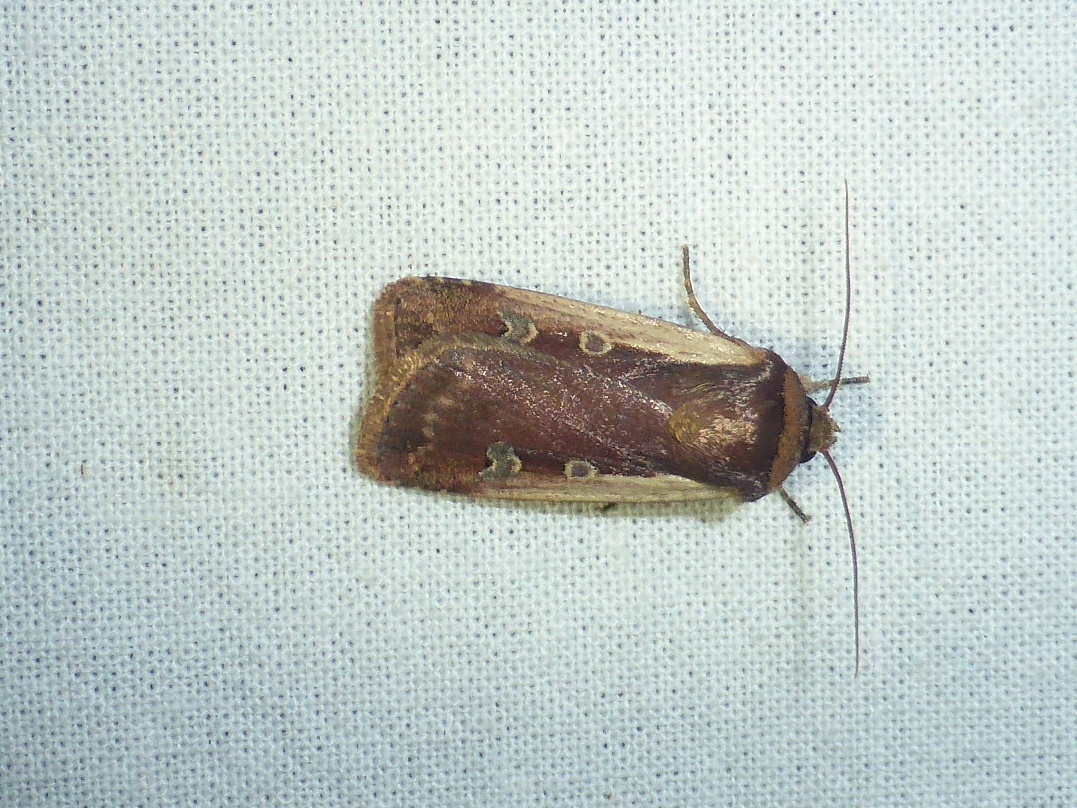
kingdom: Animalia
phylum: Arthropoda
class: Insecta
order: Lepidoptera
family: Noctuidae
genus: Ochropleura
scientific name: Ochropleura plecta
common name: Flame shoulder
